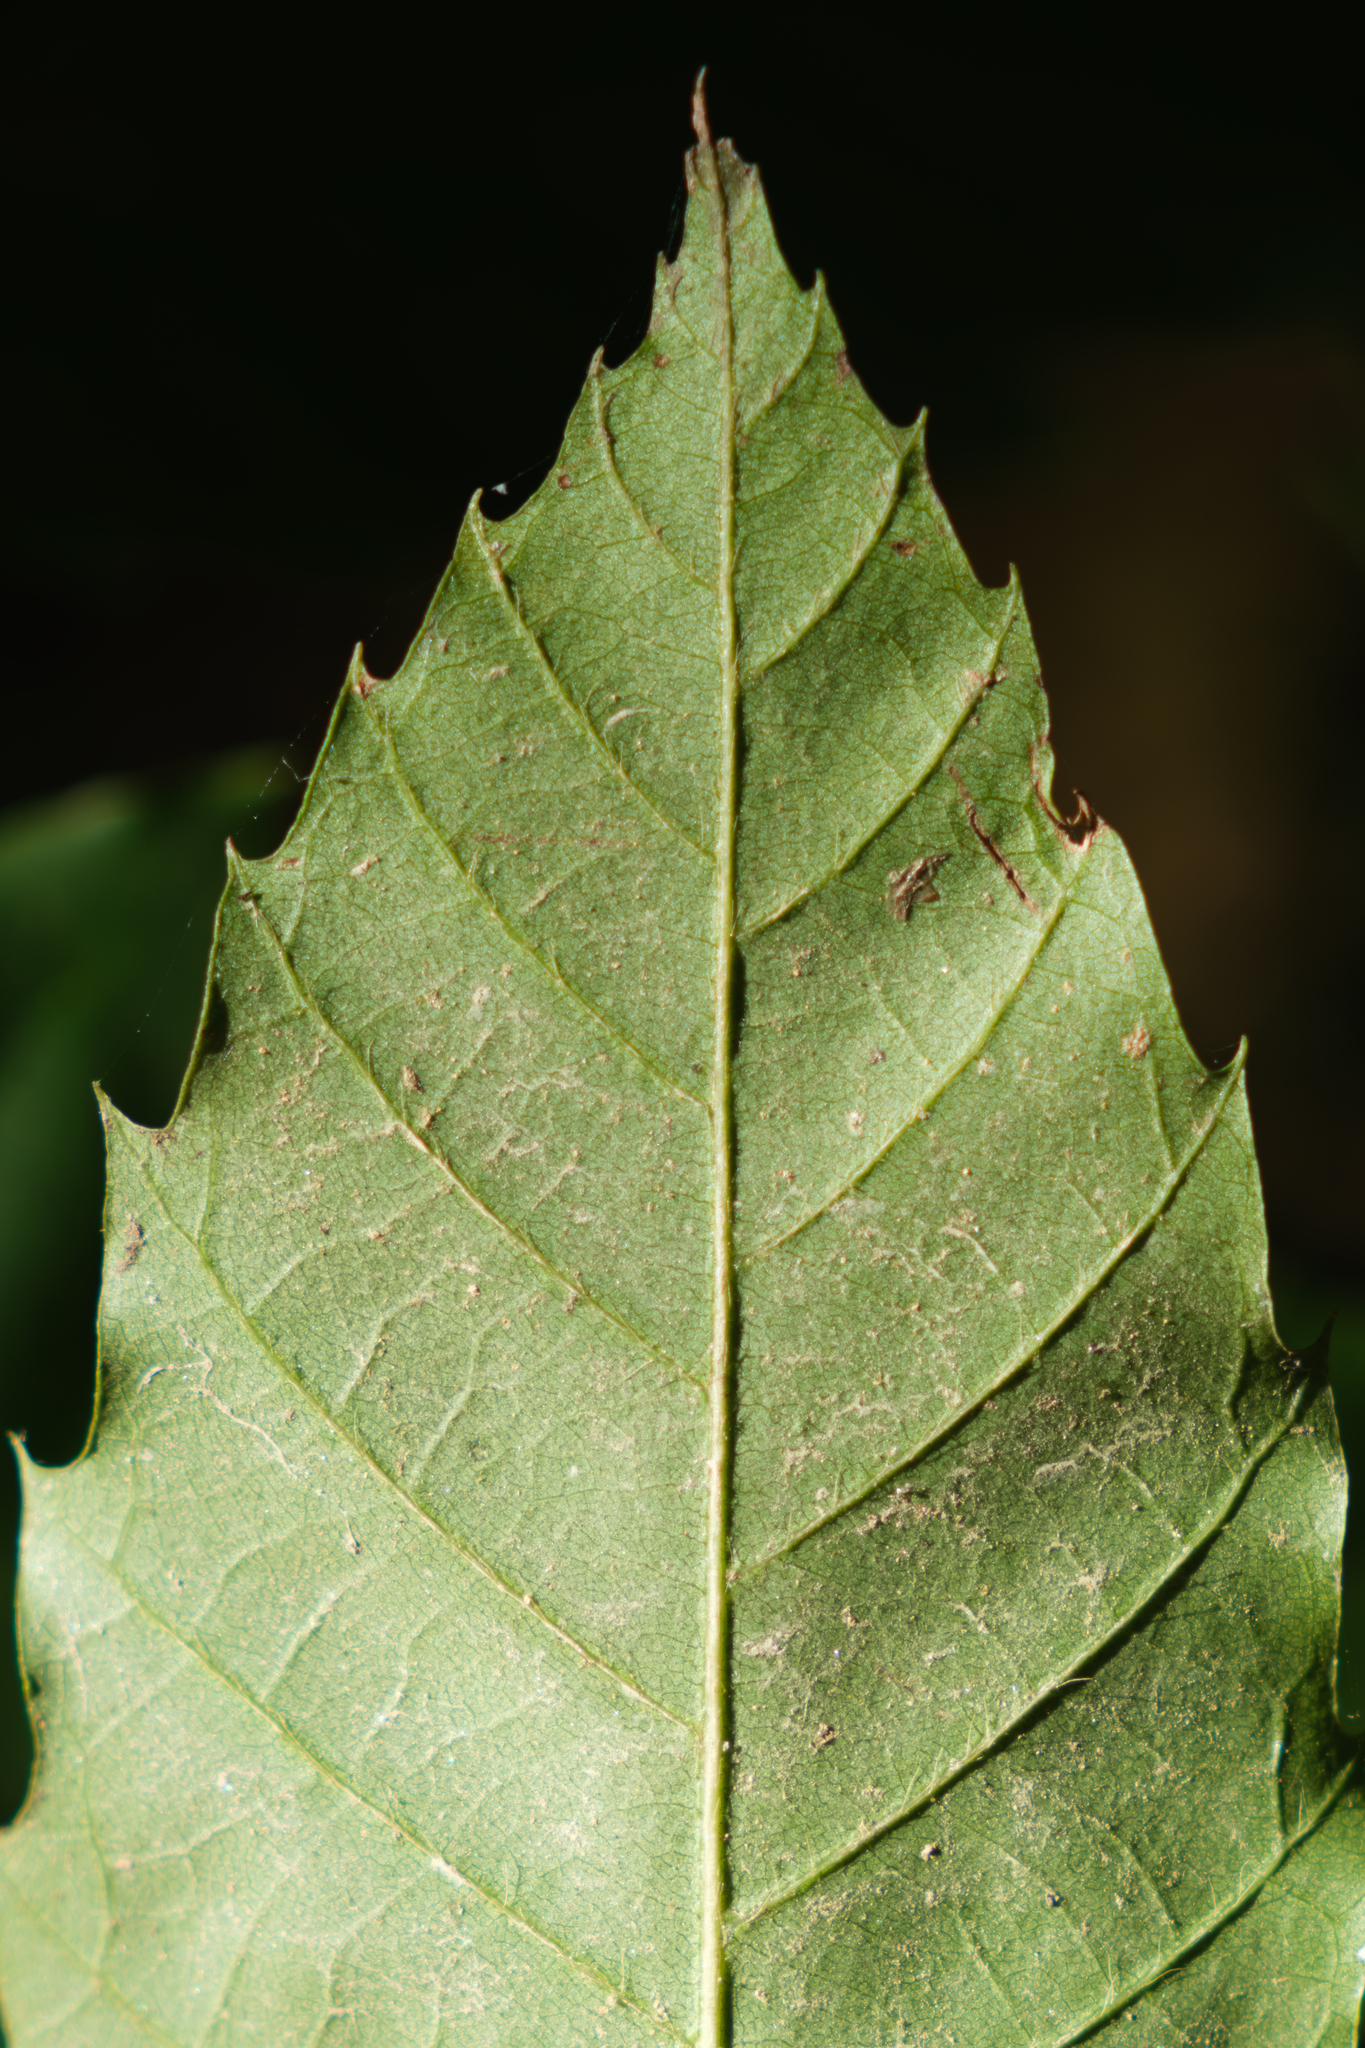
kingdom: Plantae
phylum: Tracheophyta
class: Magnoliopsida
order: Fagales
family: Fagaceae
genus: Castanea
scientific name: Castanea dentata
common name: American chestnut
